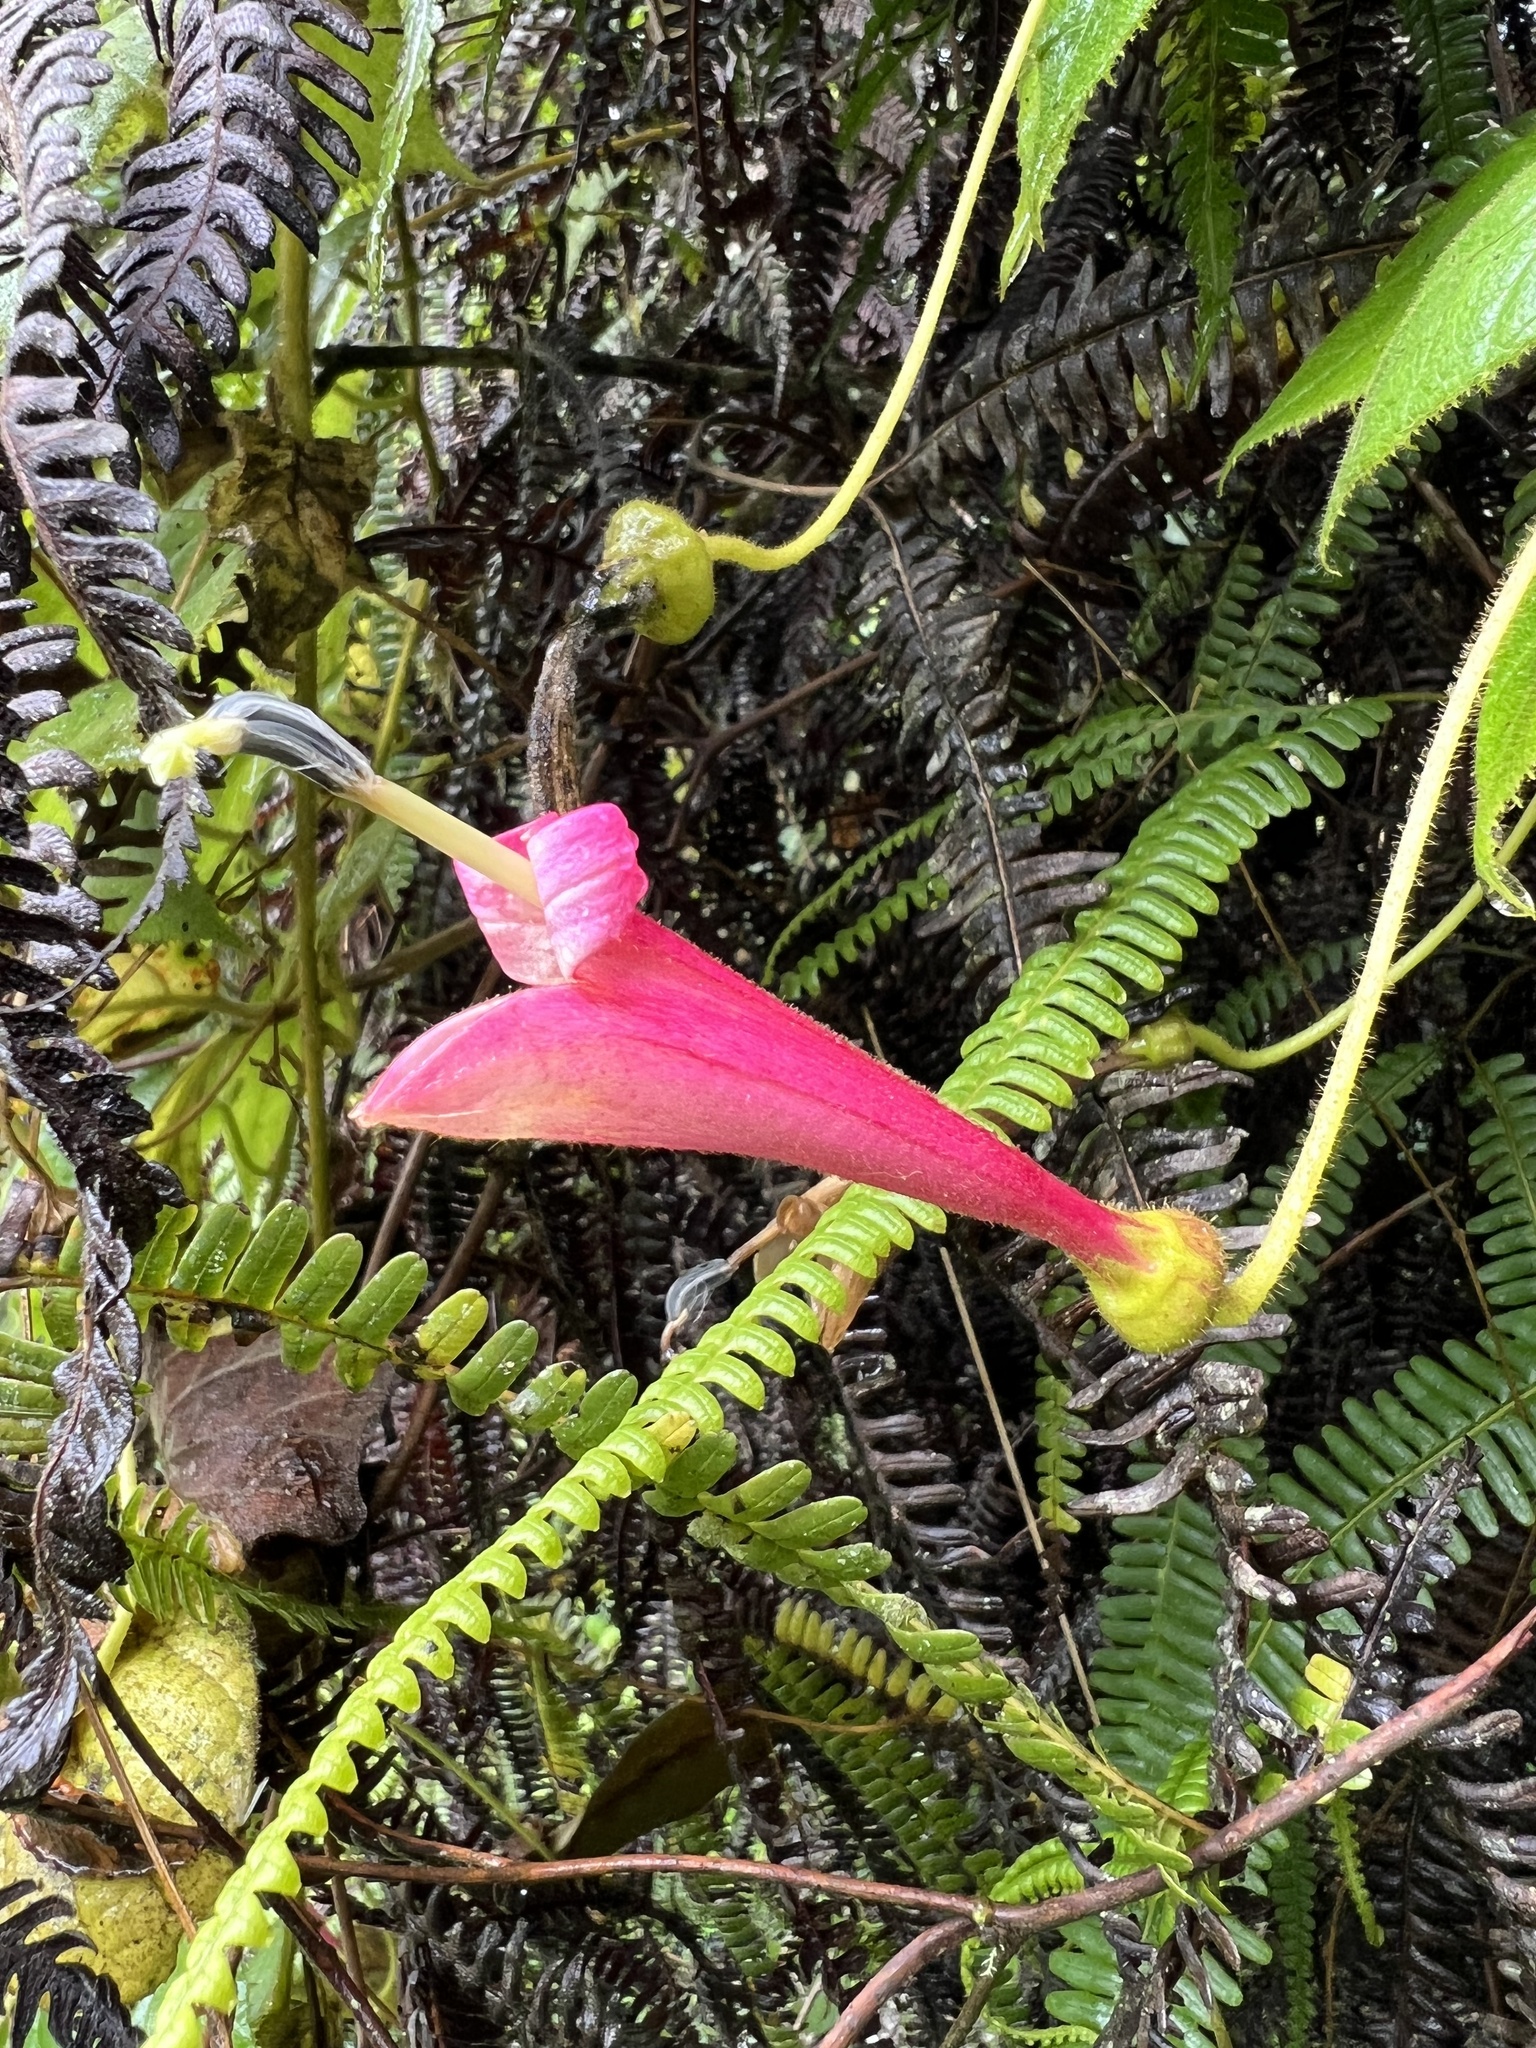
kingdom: Plantae
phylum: Tracheophyta
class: Magnoliopsida
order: Asterales
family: Campanulaceae
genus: Siphocampylus
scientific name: Siphocampylus benthamianus
